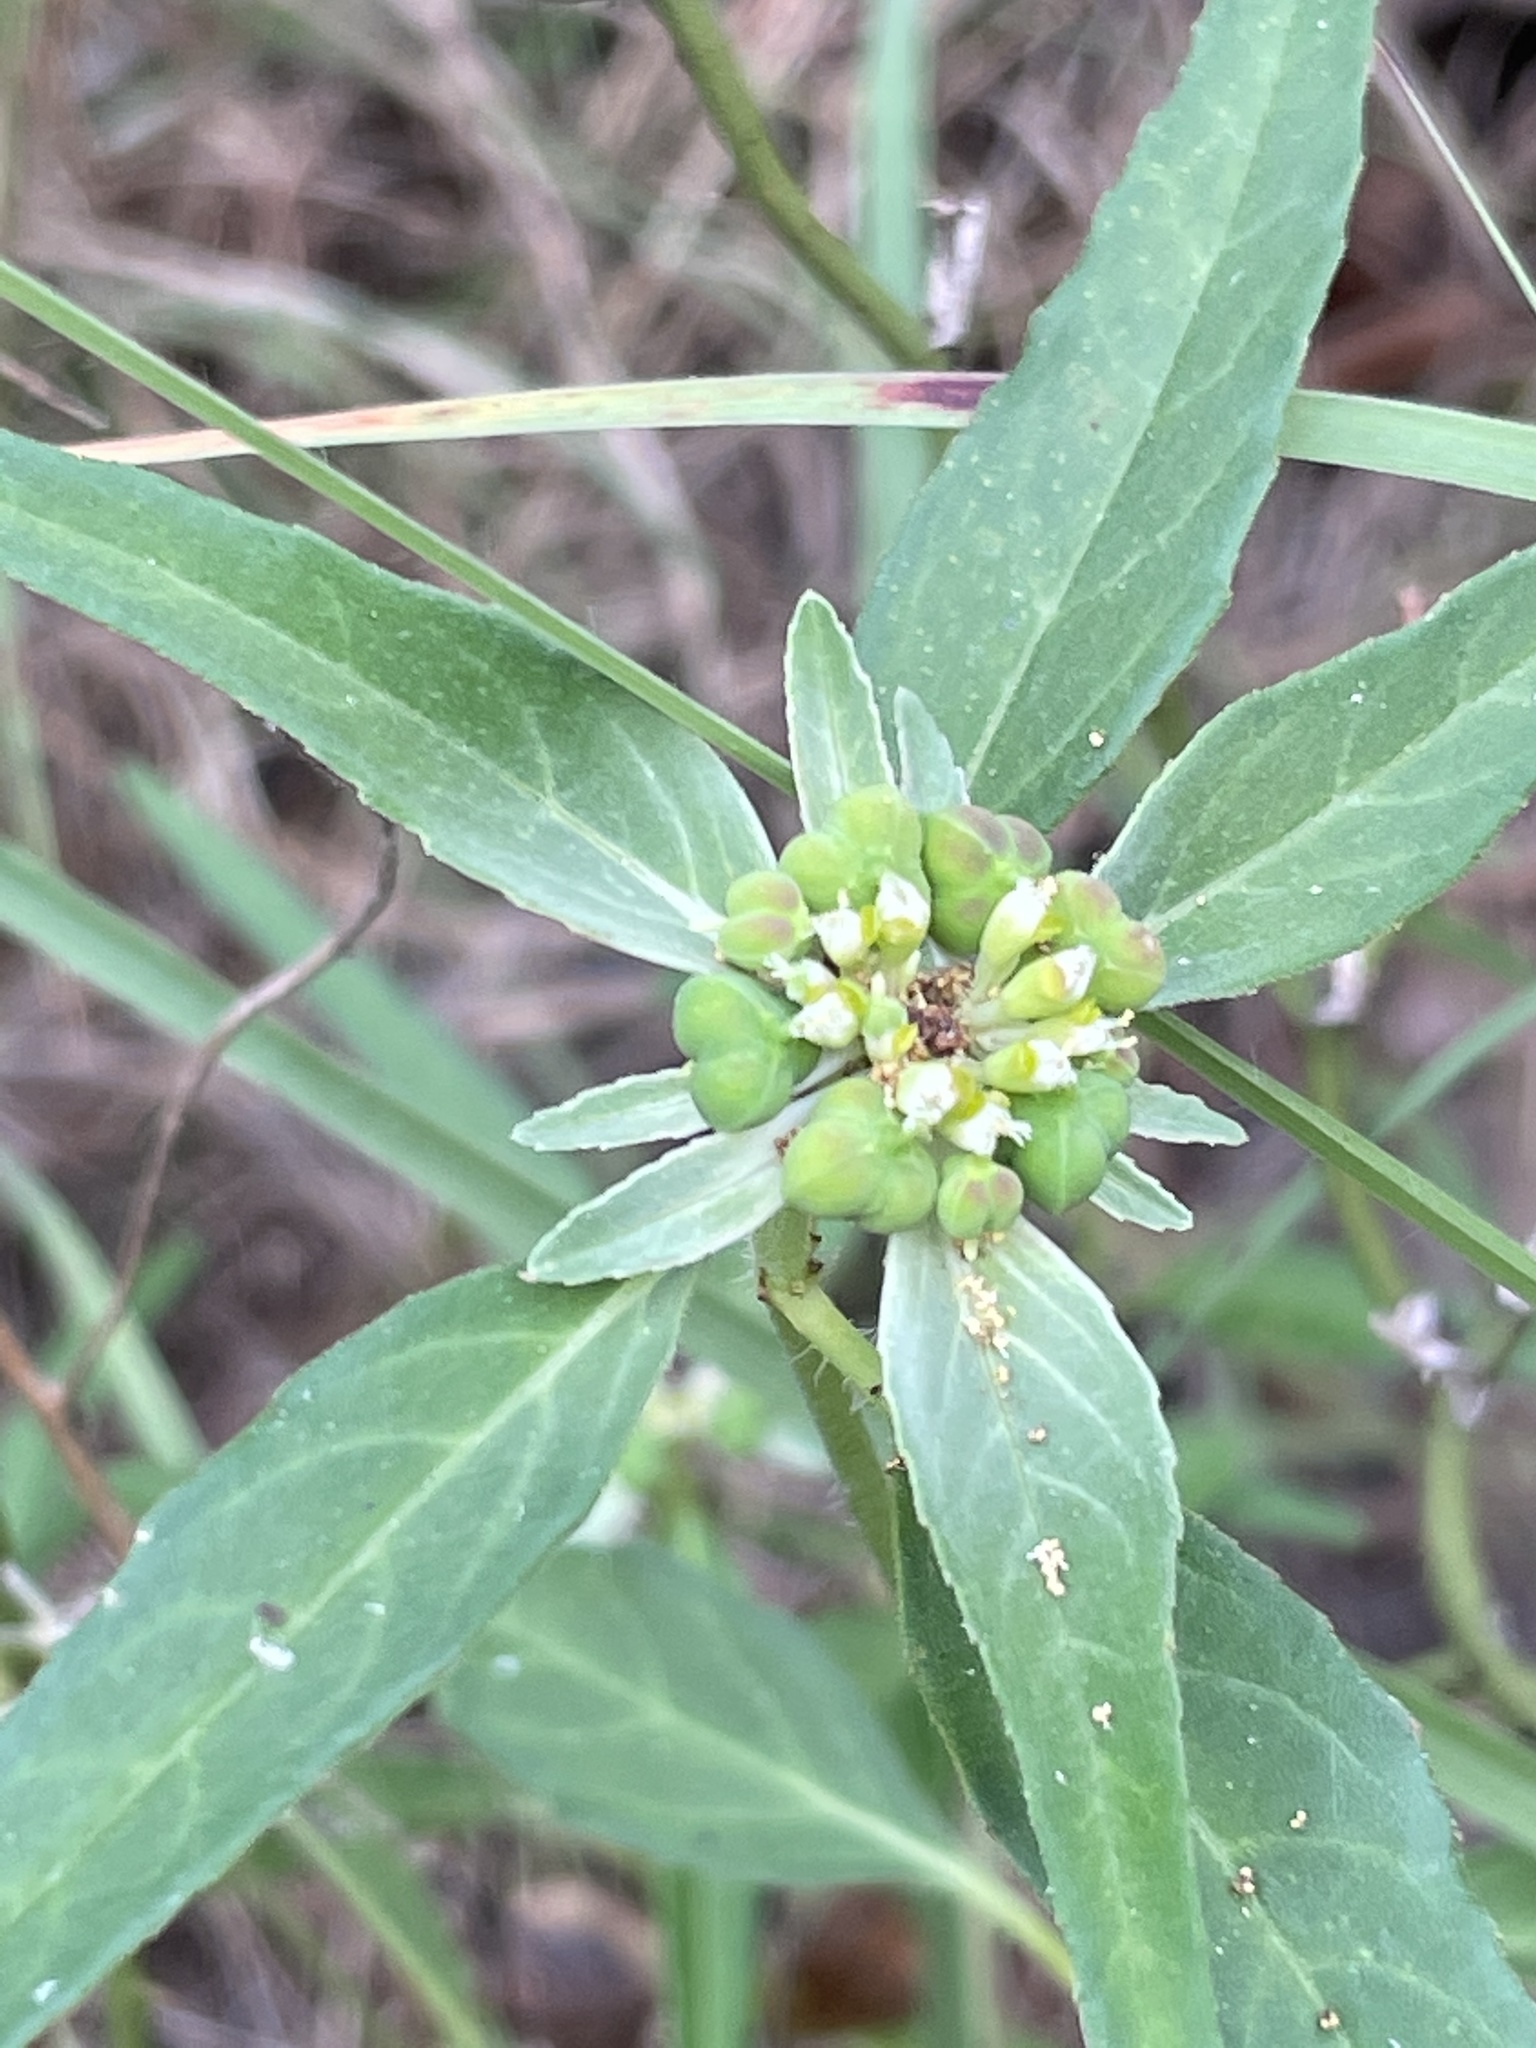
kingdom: Plantae
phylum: Tracheophyta
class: Magnoliopsida
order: Malpighiales
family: Euphorbiaceae
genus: Euphorbia
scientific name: Euphorbia dentata
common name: Dentate spurge
